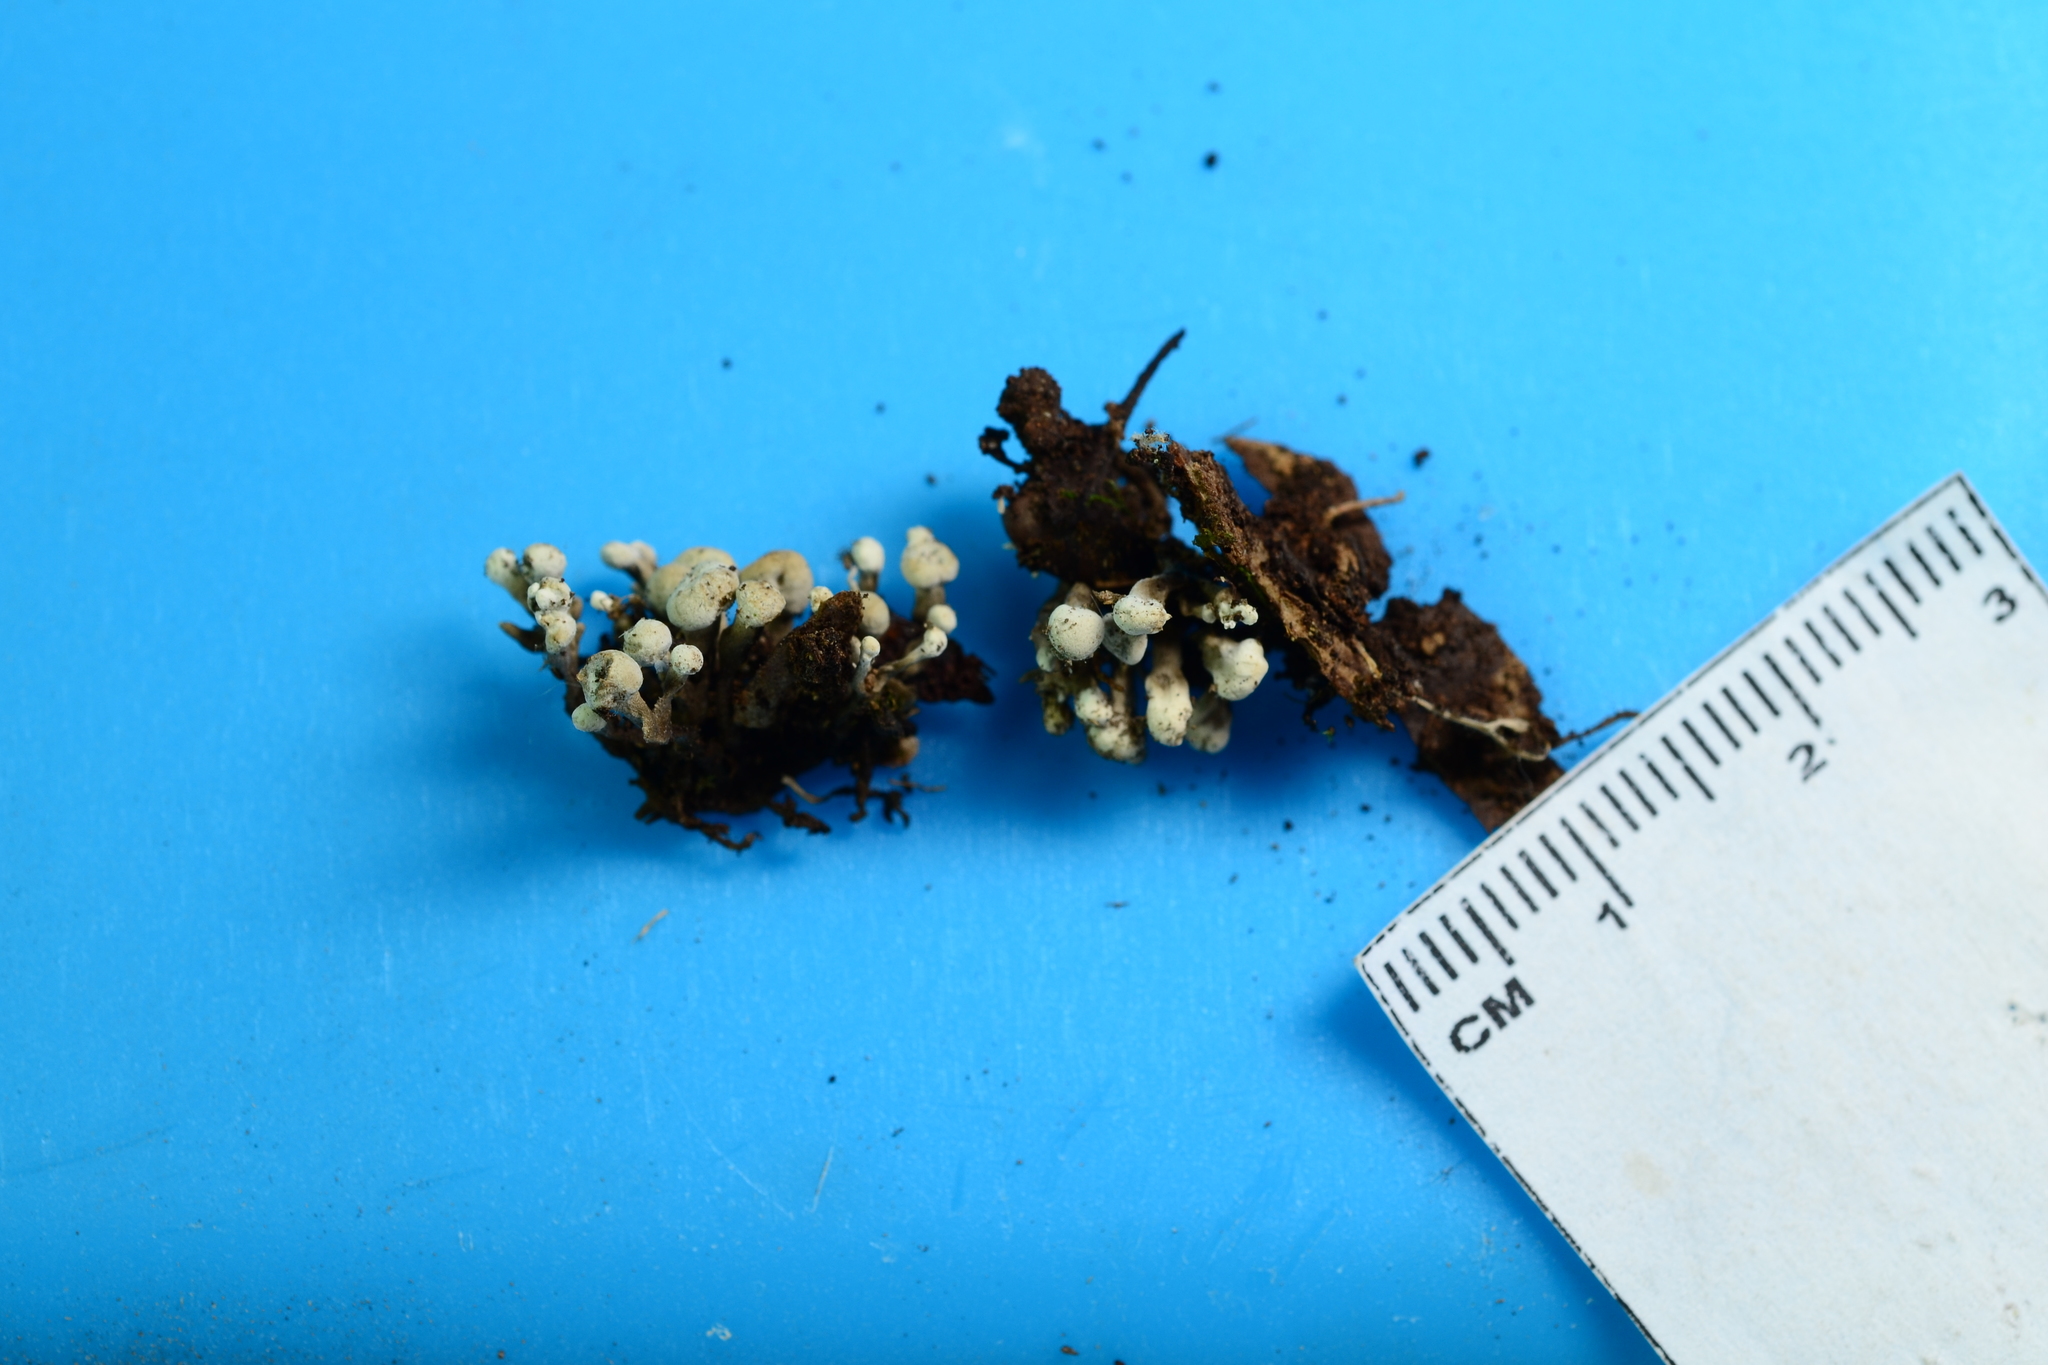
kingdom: Fungi
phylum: Basidiomycota
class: Atractiellomycetes
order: Atractiellales
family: Phleogenaceae
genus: Phleogena
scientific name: Phleogena faginea
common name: Fenugreek stalkball
